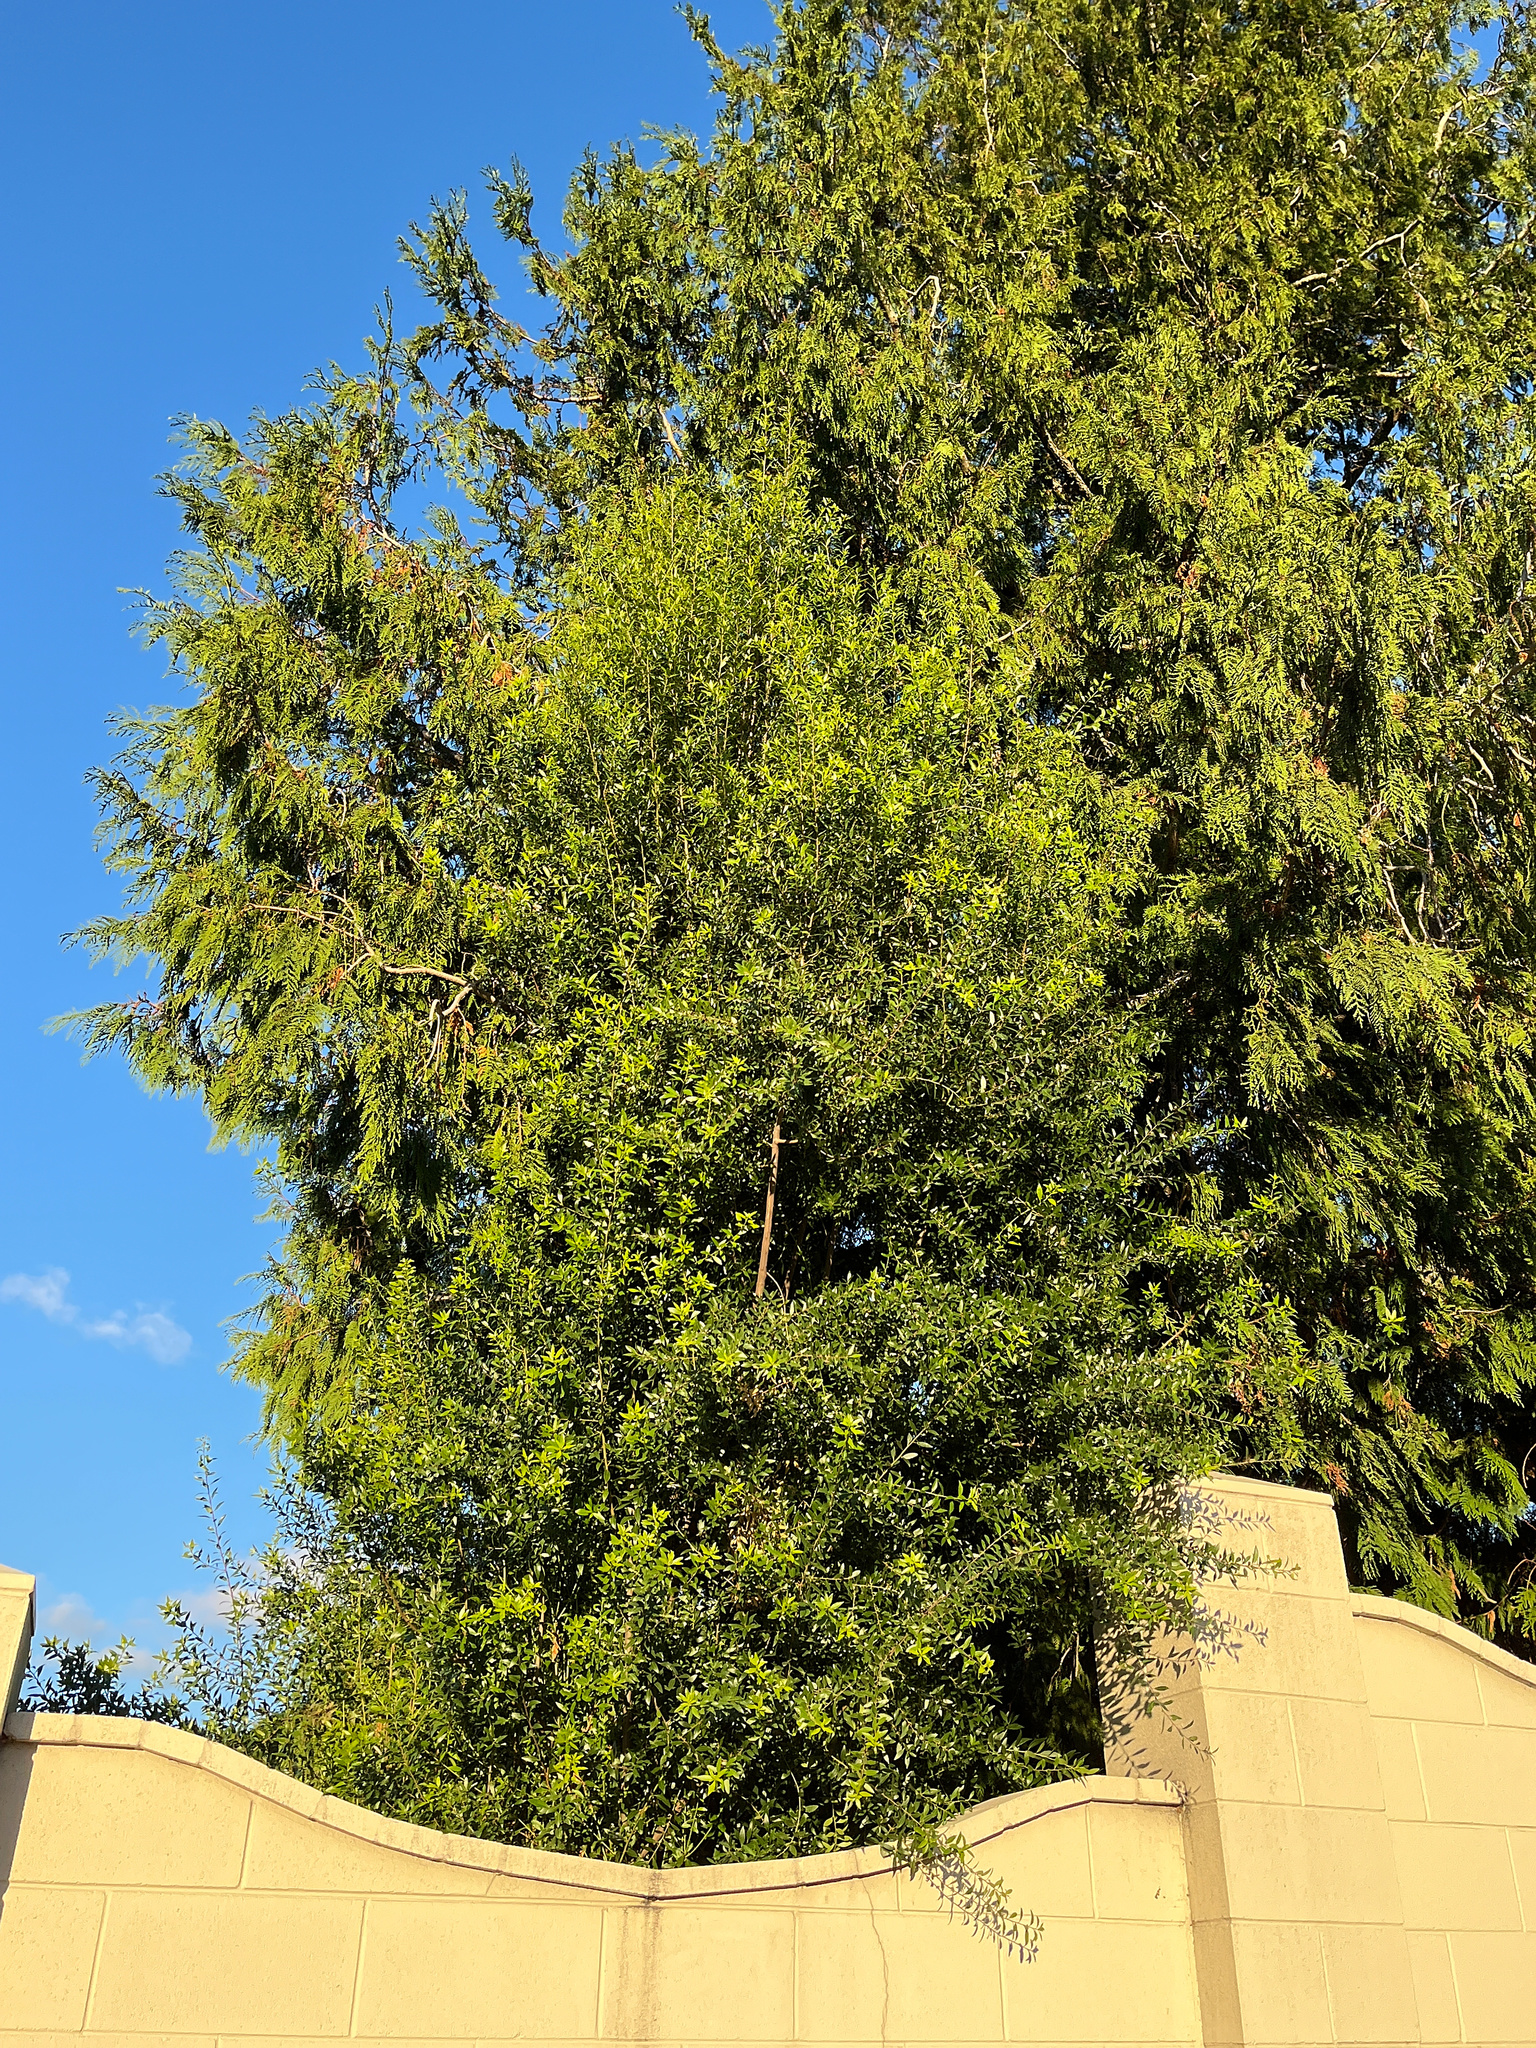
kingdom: Plantae
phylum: Tracheophyta
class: Magnoliopsida
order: Celastrales
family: Celastraceae
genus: Maytenus
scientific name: Maytenus boaria
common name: Mayten
